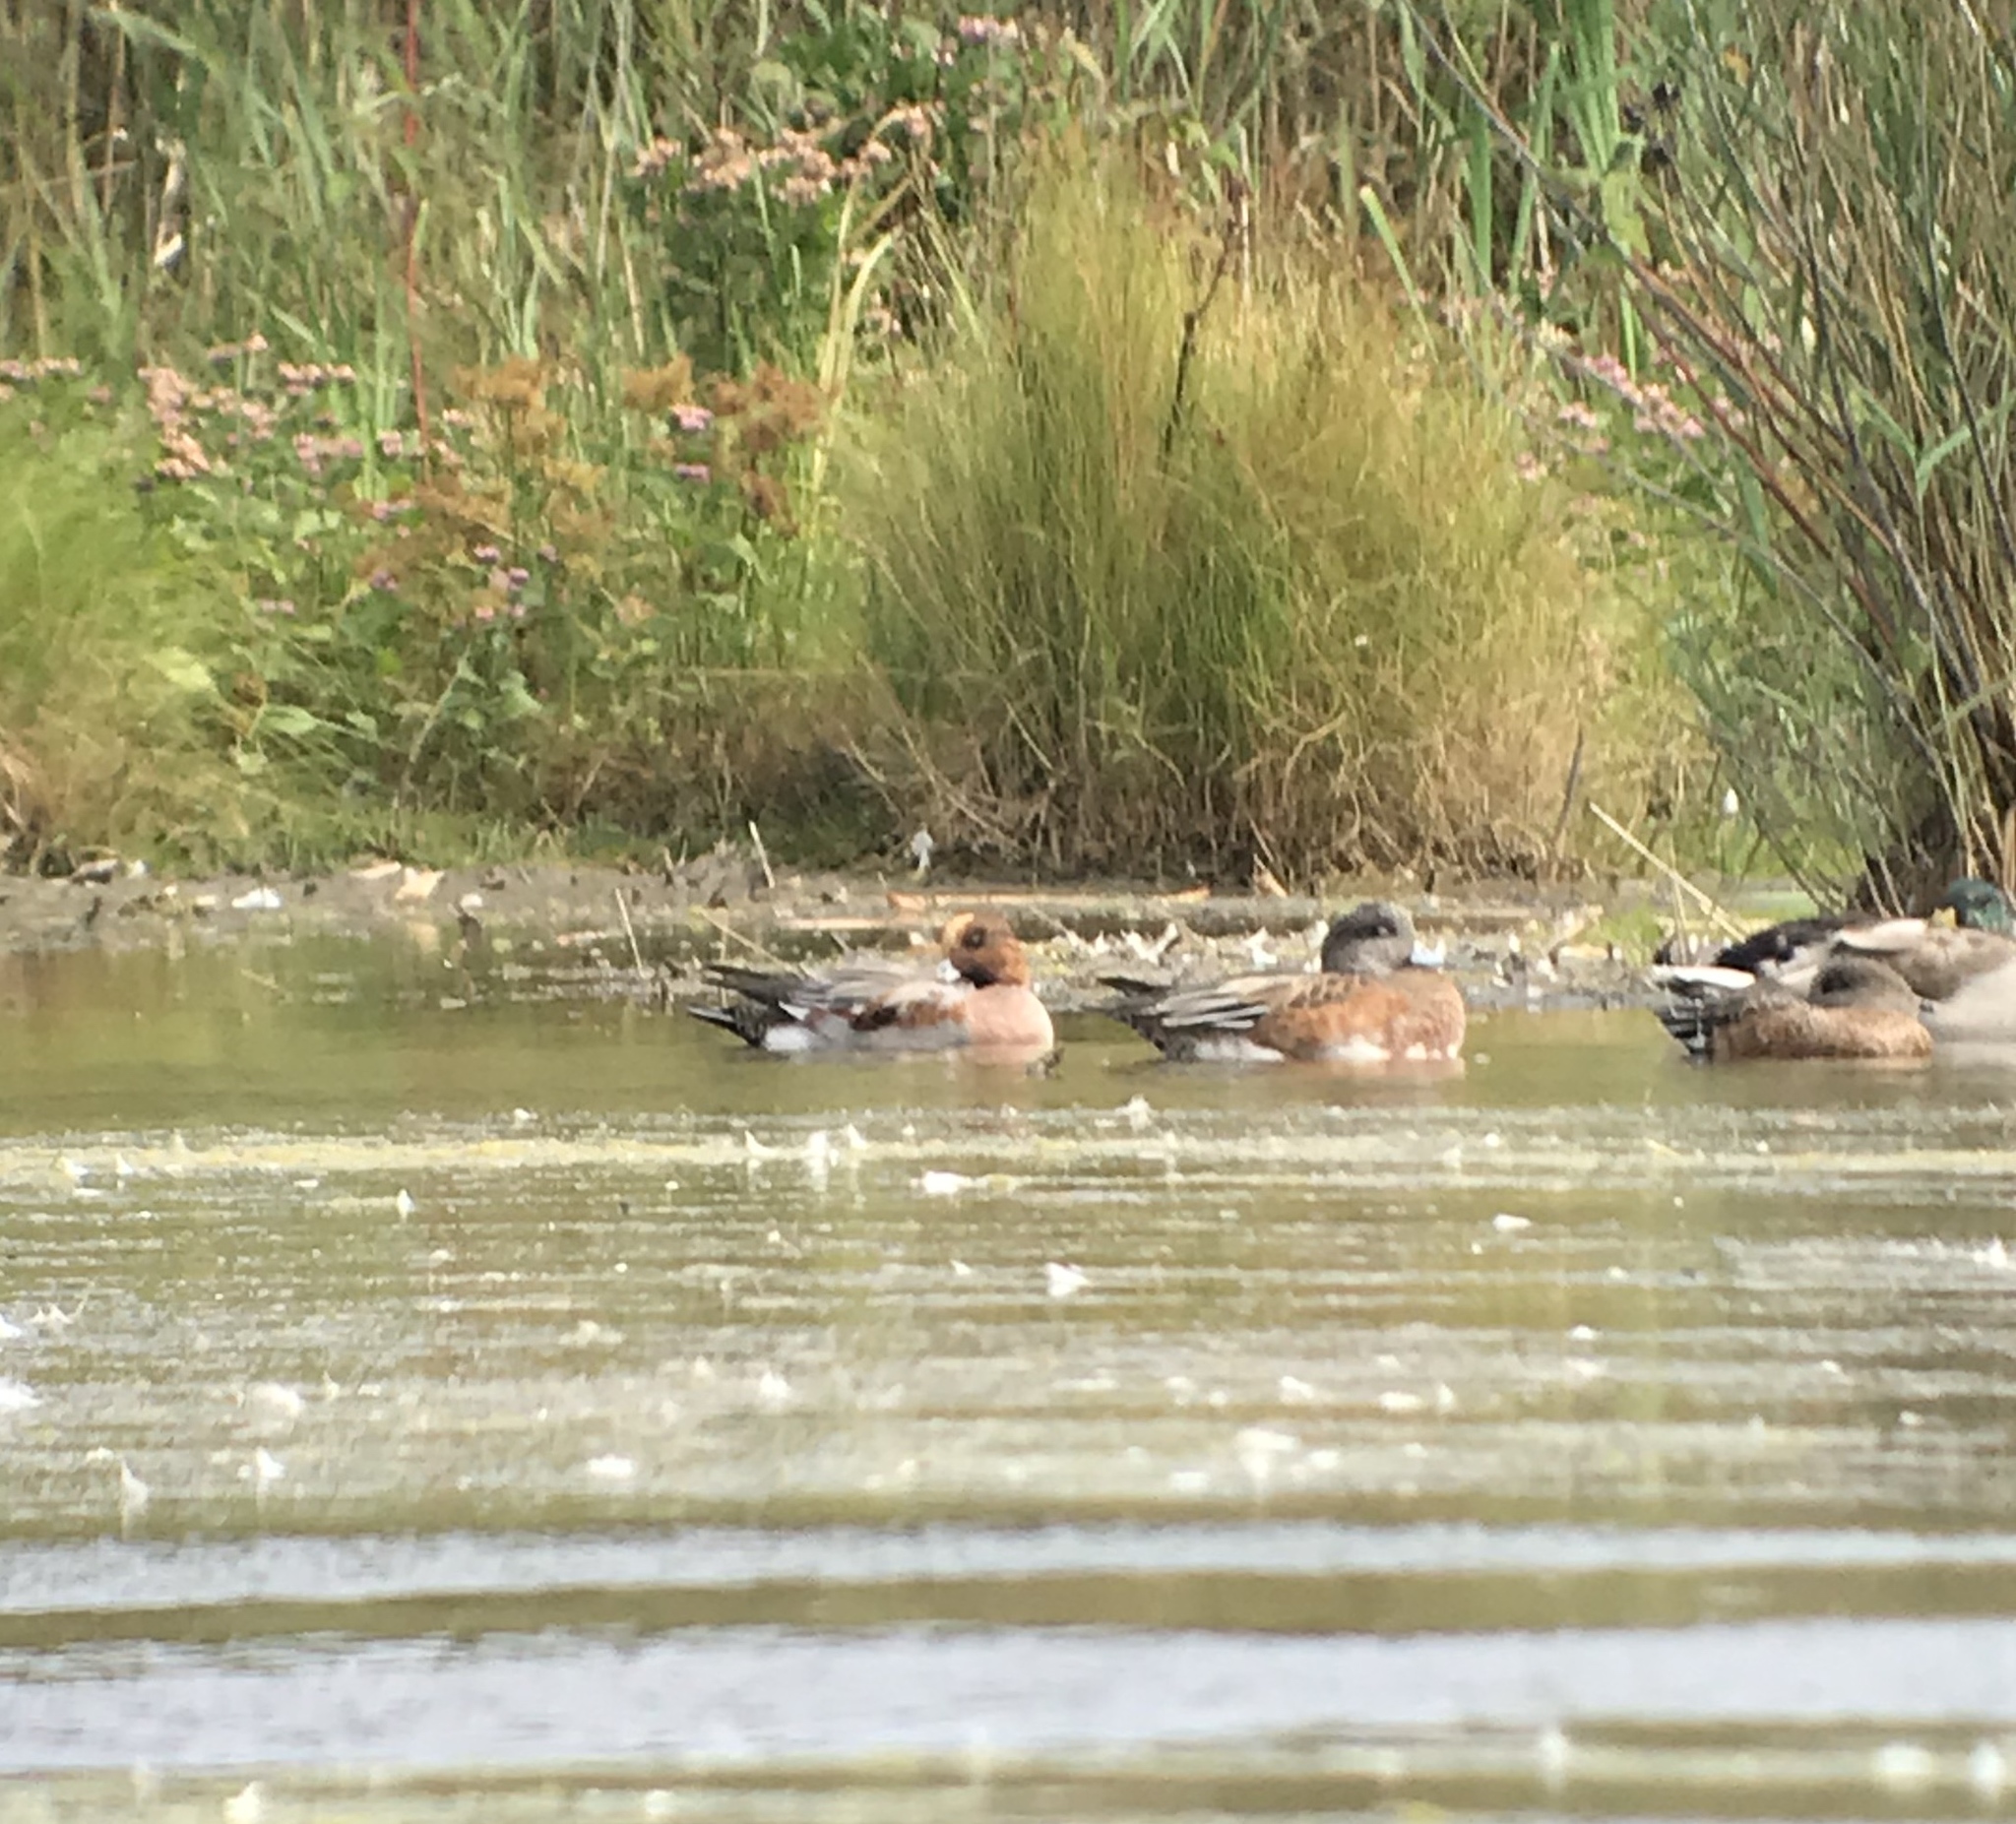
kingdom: Animalia
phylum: Chordata
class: Aves
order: Anseriformes
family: Anatidae
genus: Mareca
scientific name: Mareca penelope
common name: Eurasian wigeon
